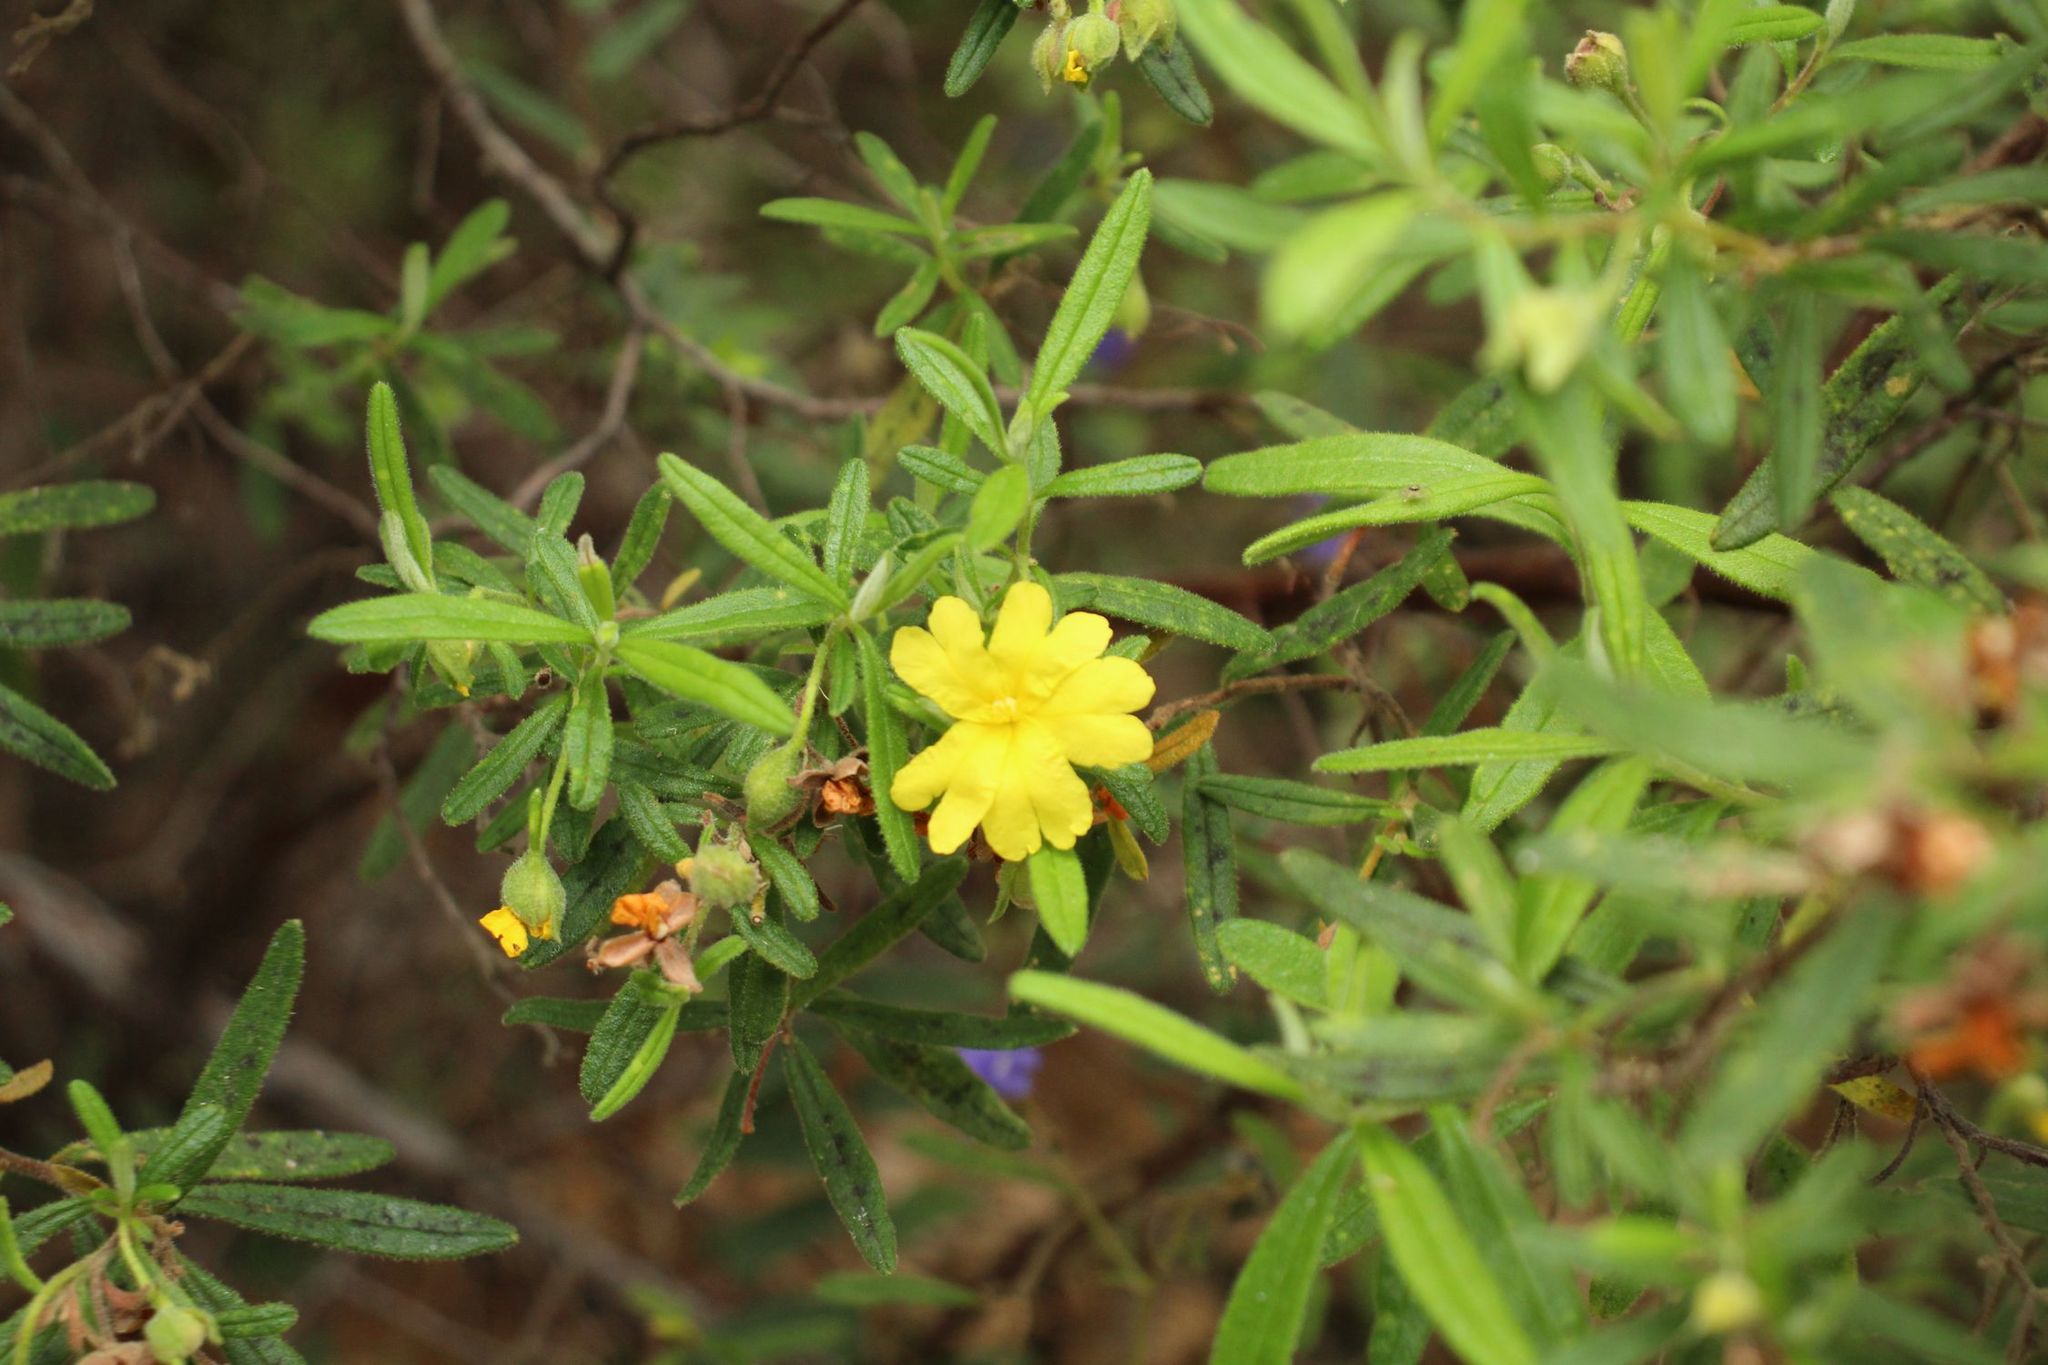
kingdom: Plantae
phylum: Tracheophyta
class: Magnoliopsida
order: Dilleniales
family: Dilleniaceae
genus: Hibbertia
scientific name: Hibbertia furfuracea
